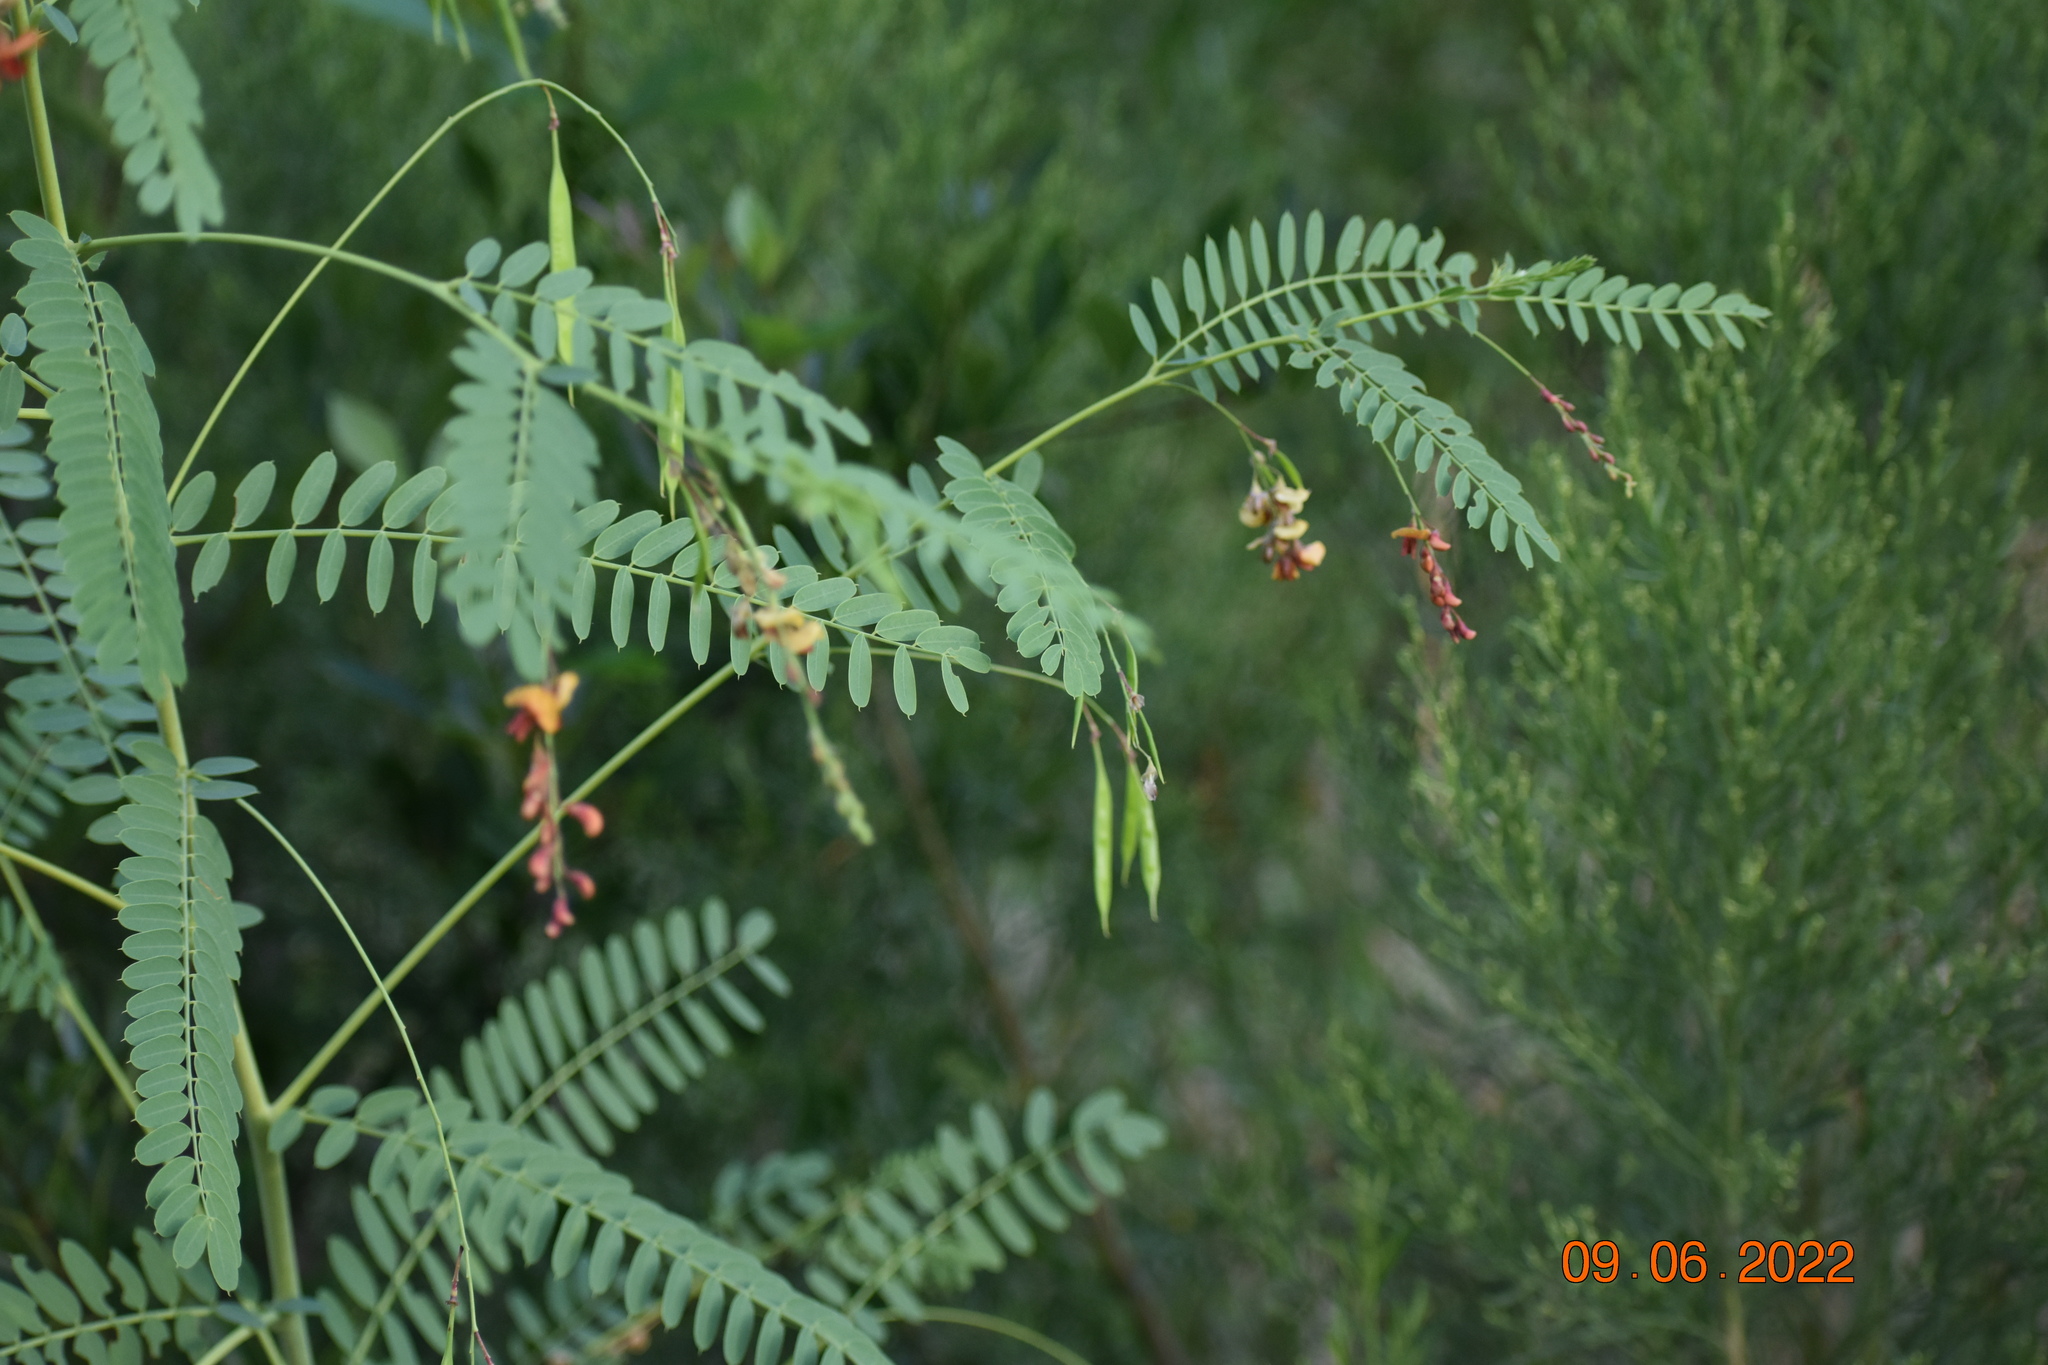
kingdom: Plantae
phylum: Tracheophyta
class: Magnoliopsida
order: Fabales
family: Fabaceae
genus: Sesbania
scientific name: Sesbania vesicaria
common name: Bagpod
